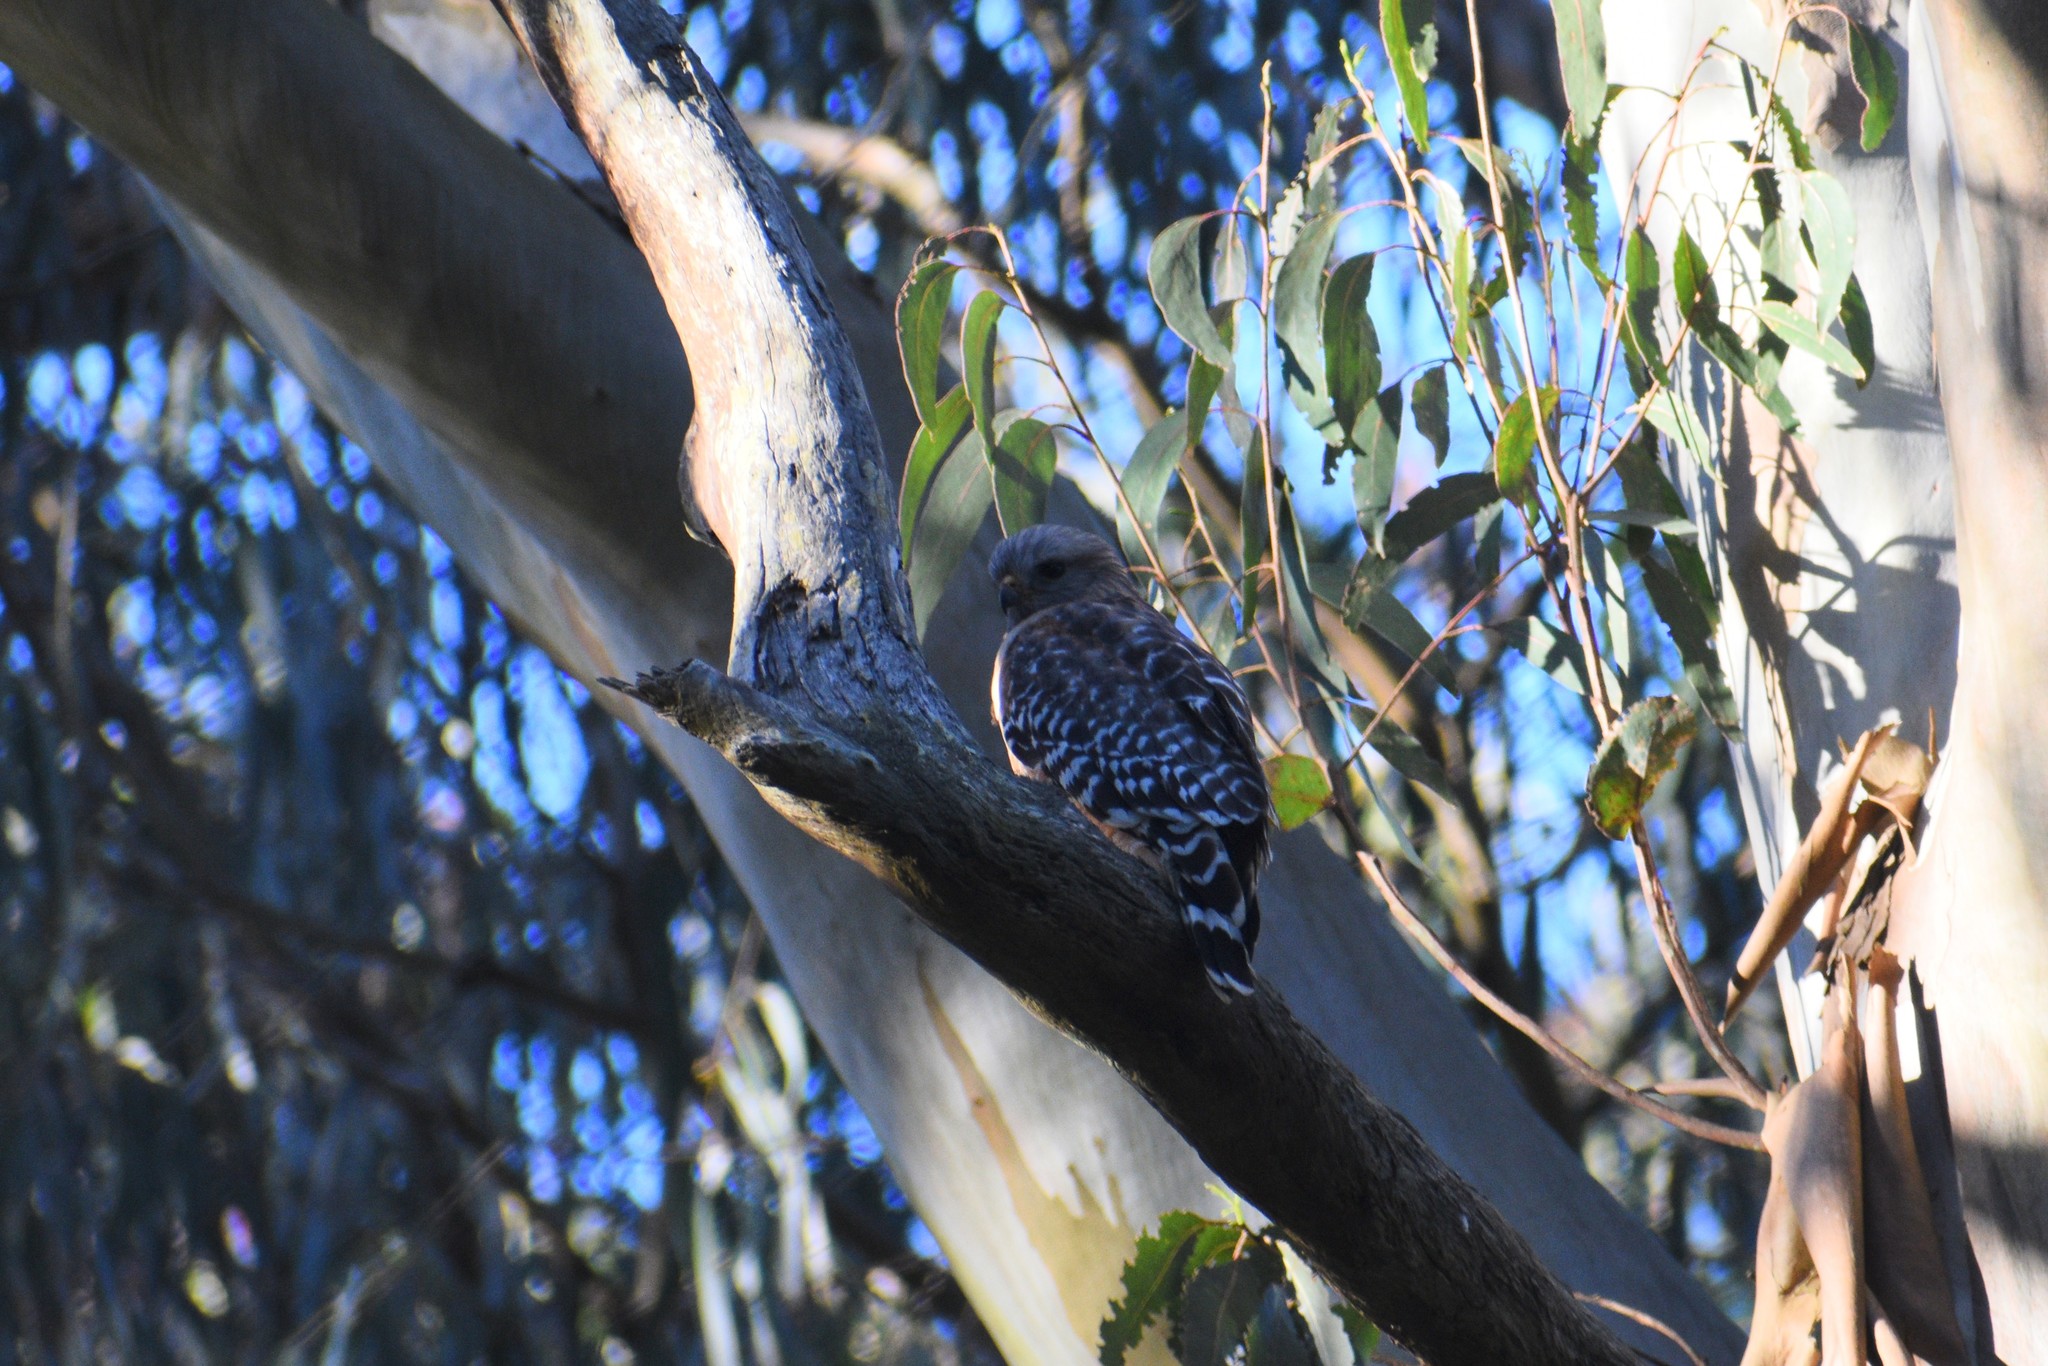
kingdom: Animalia
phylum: Chordata
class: Aves
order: Accipitriformes
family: Accipitridae
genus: Buteo
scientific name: Buteo lineatus
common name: Red-shouldered hawk
